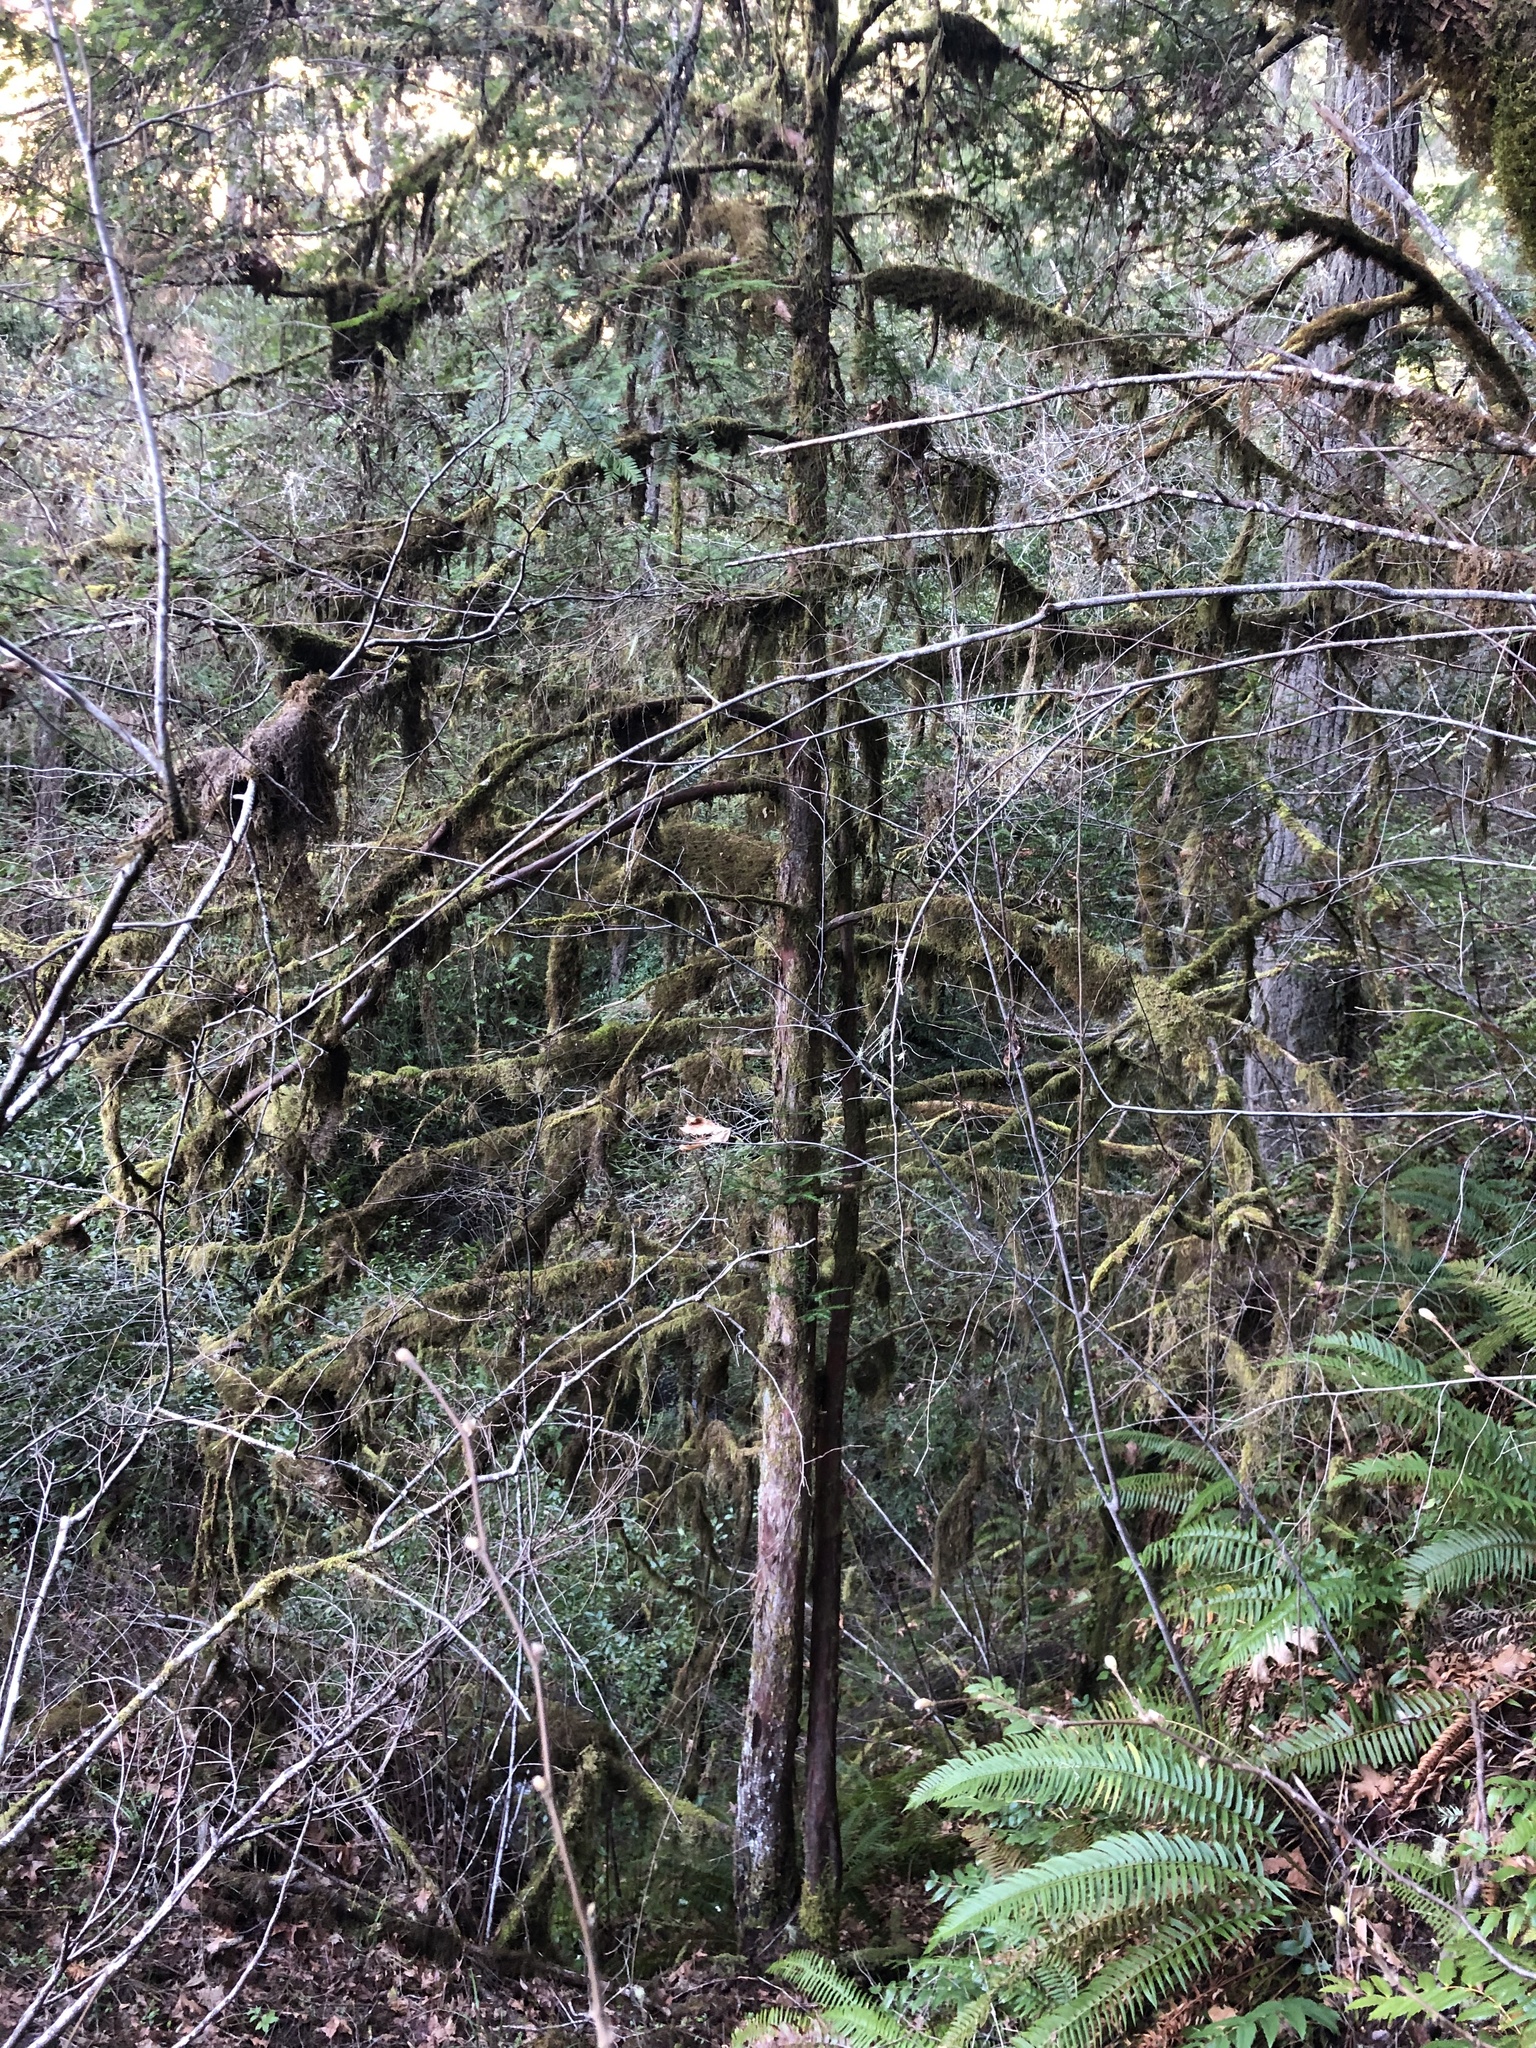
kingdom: Plantae
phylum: Tracheophyta
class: Pinopsida
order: Pinales
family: Taxaceae
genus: Taxus
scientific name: Taxus brevifolia
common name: Pacific yew
